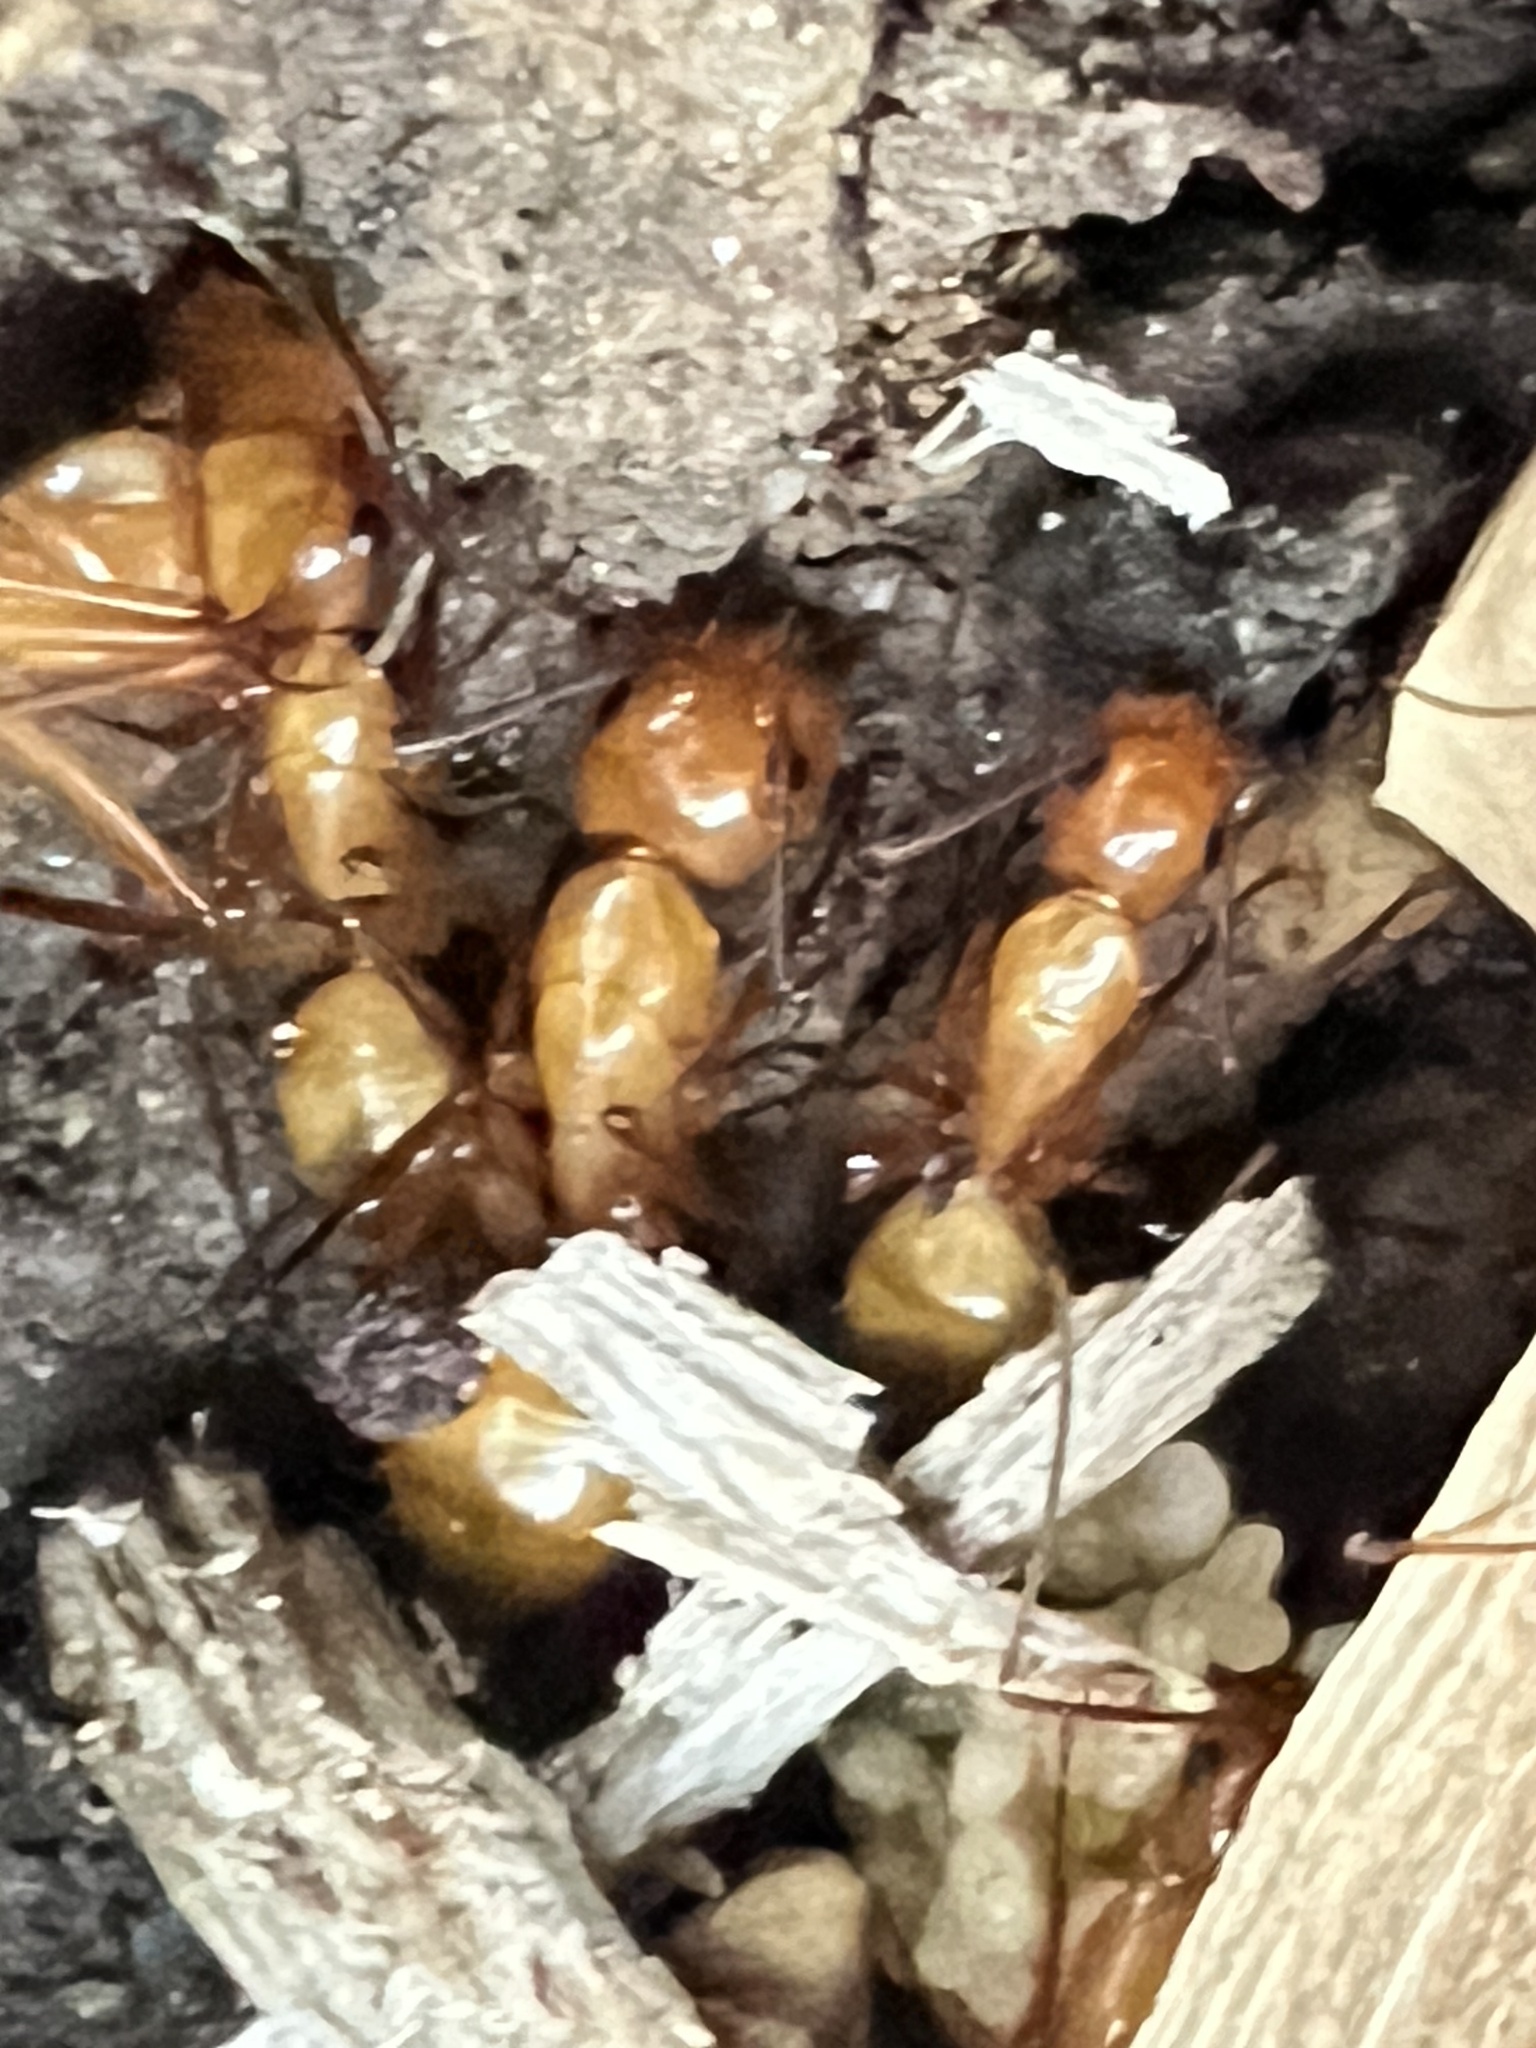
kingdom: Animalia
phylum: Arthropoda
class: Insecta
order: Hymenoptera
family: Formicidae
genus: Camponotus
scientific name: Camponotus castaneus
